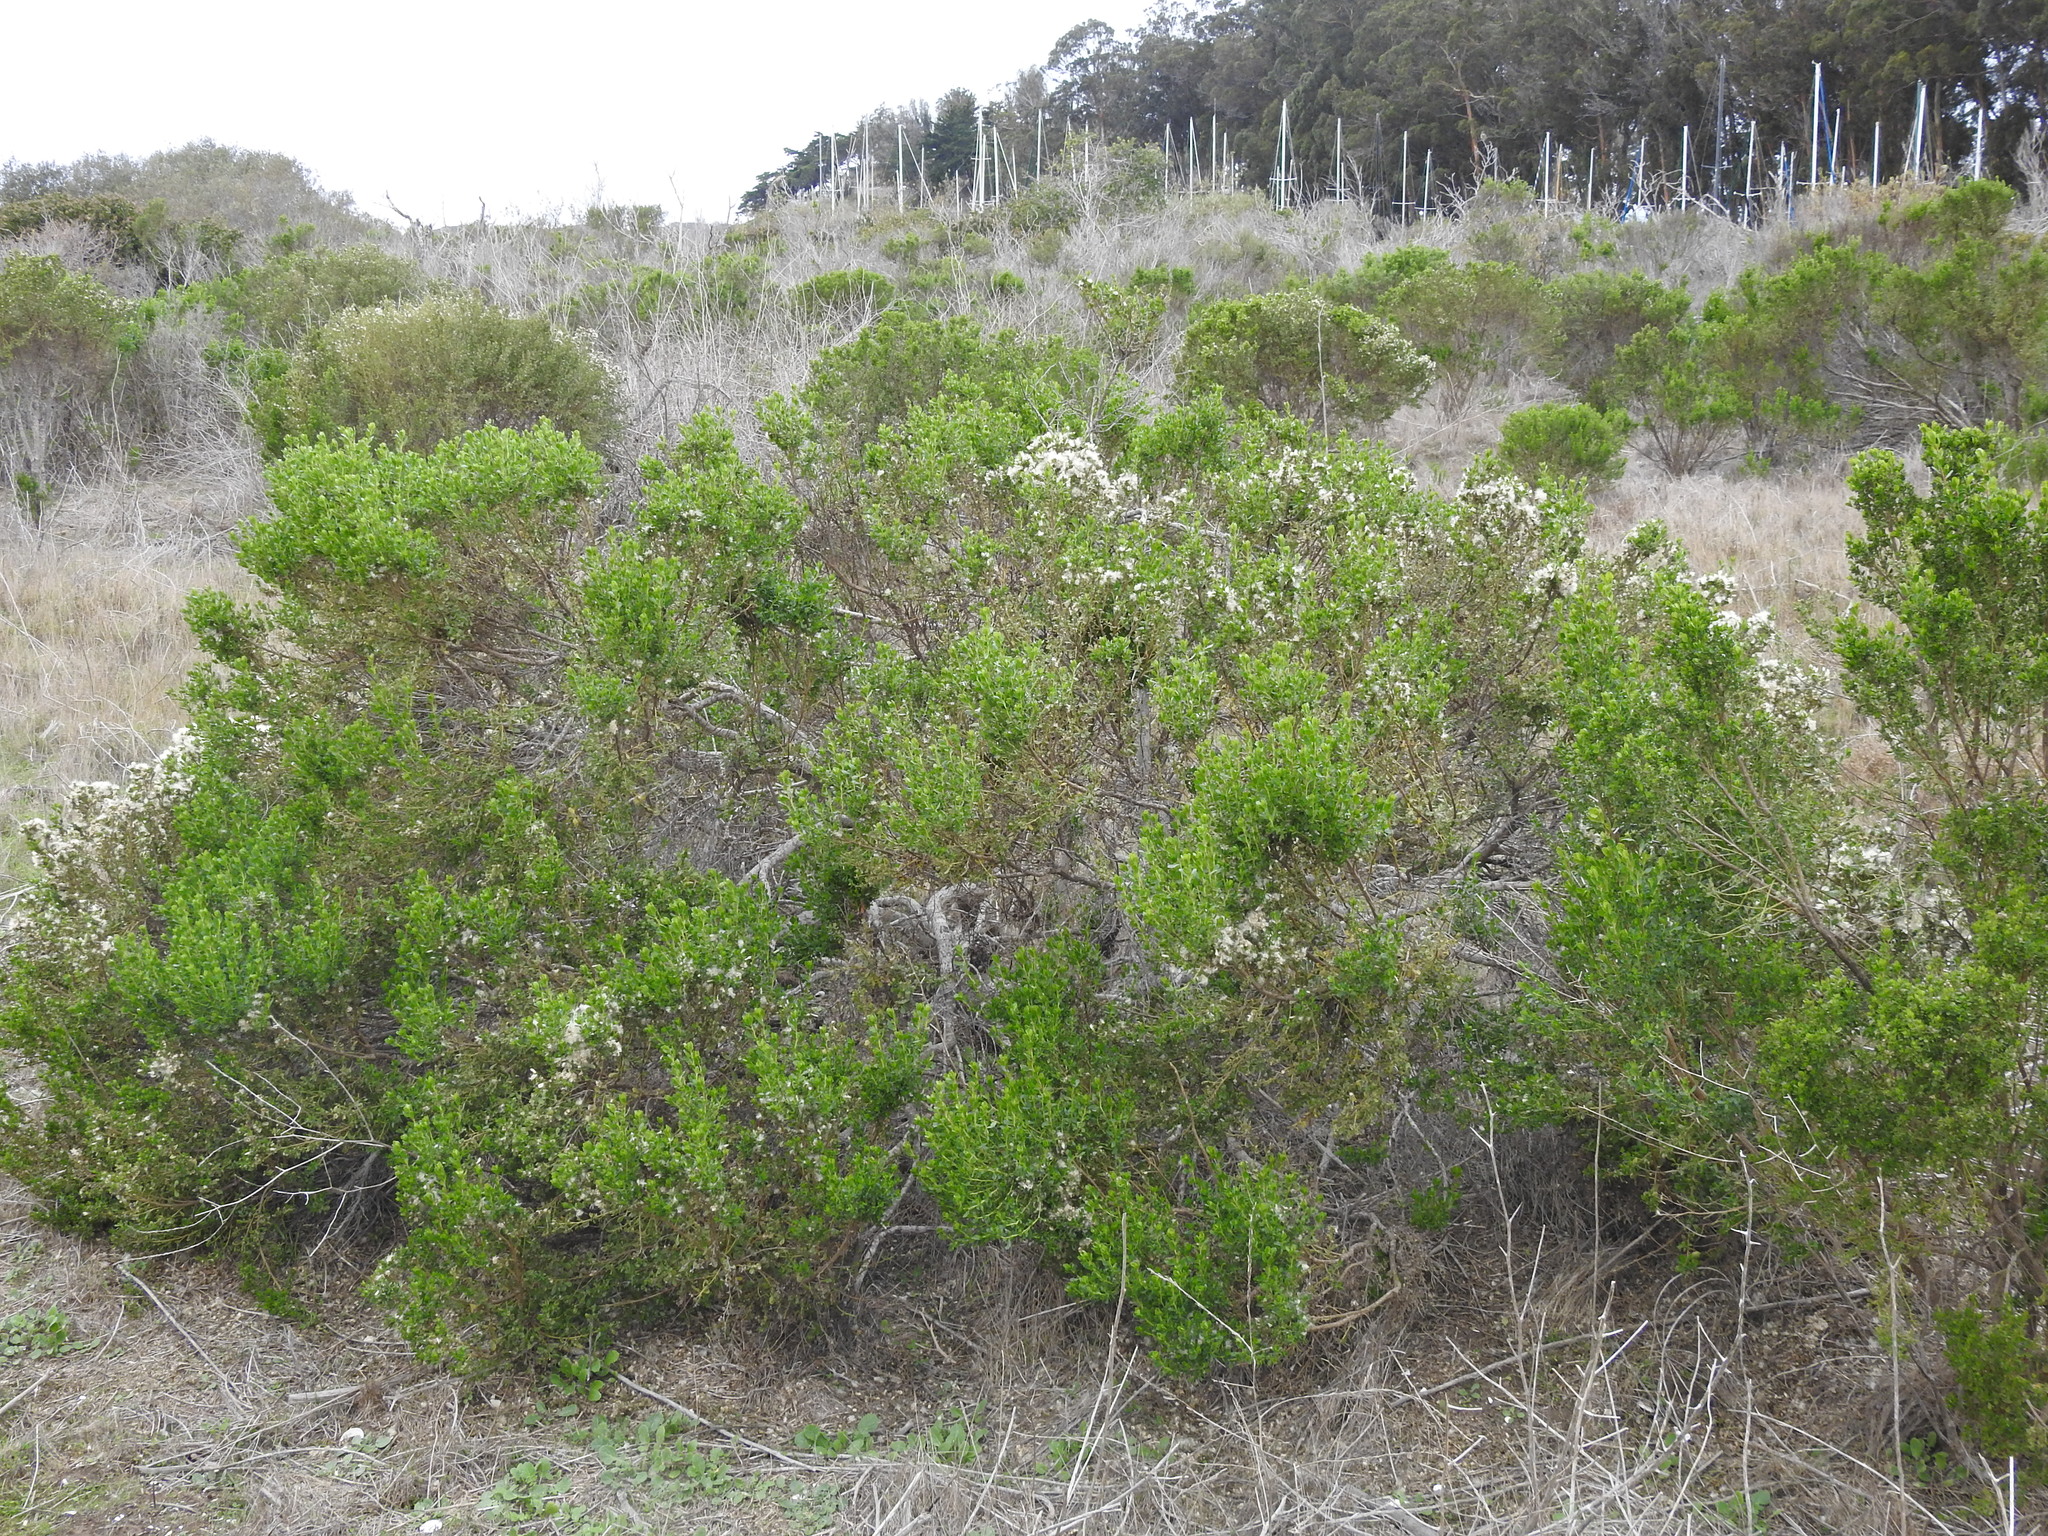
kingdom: Plantae
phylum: Tracheophyta
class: Magnoliopsida
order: Asterales
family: Asteraceae
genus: Baccharis
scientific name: Baccharis pilularis
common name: Coyotebrush
